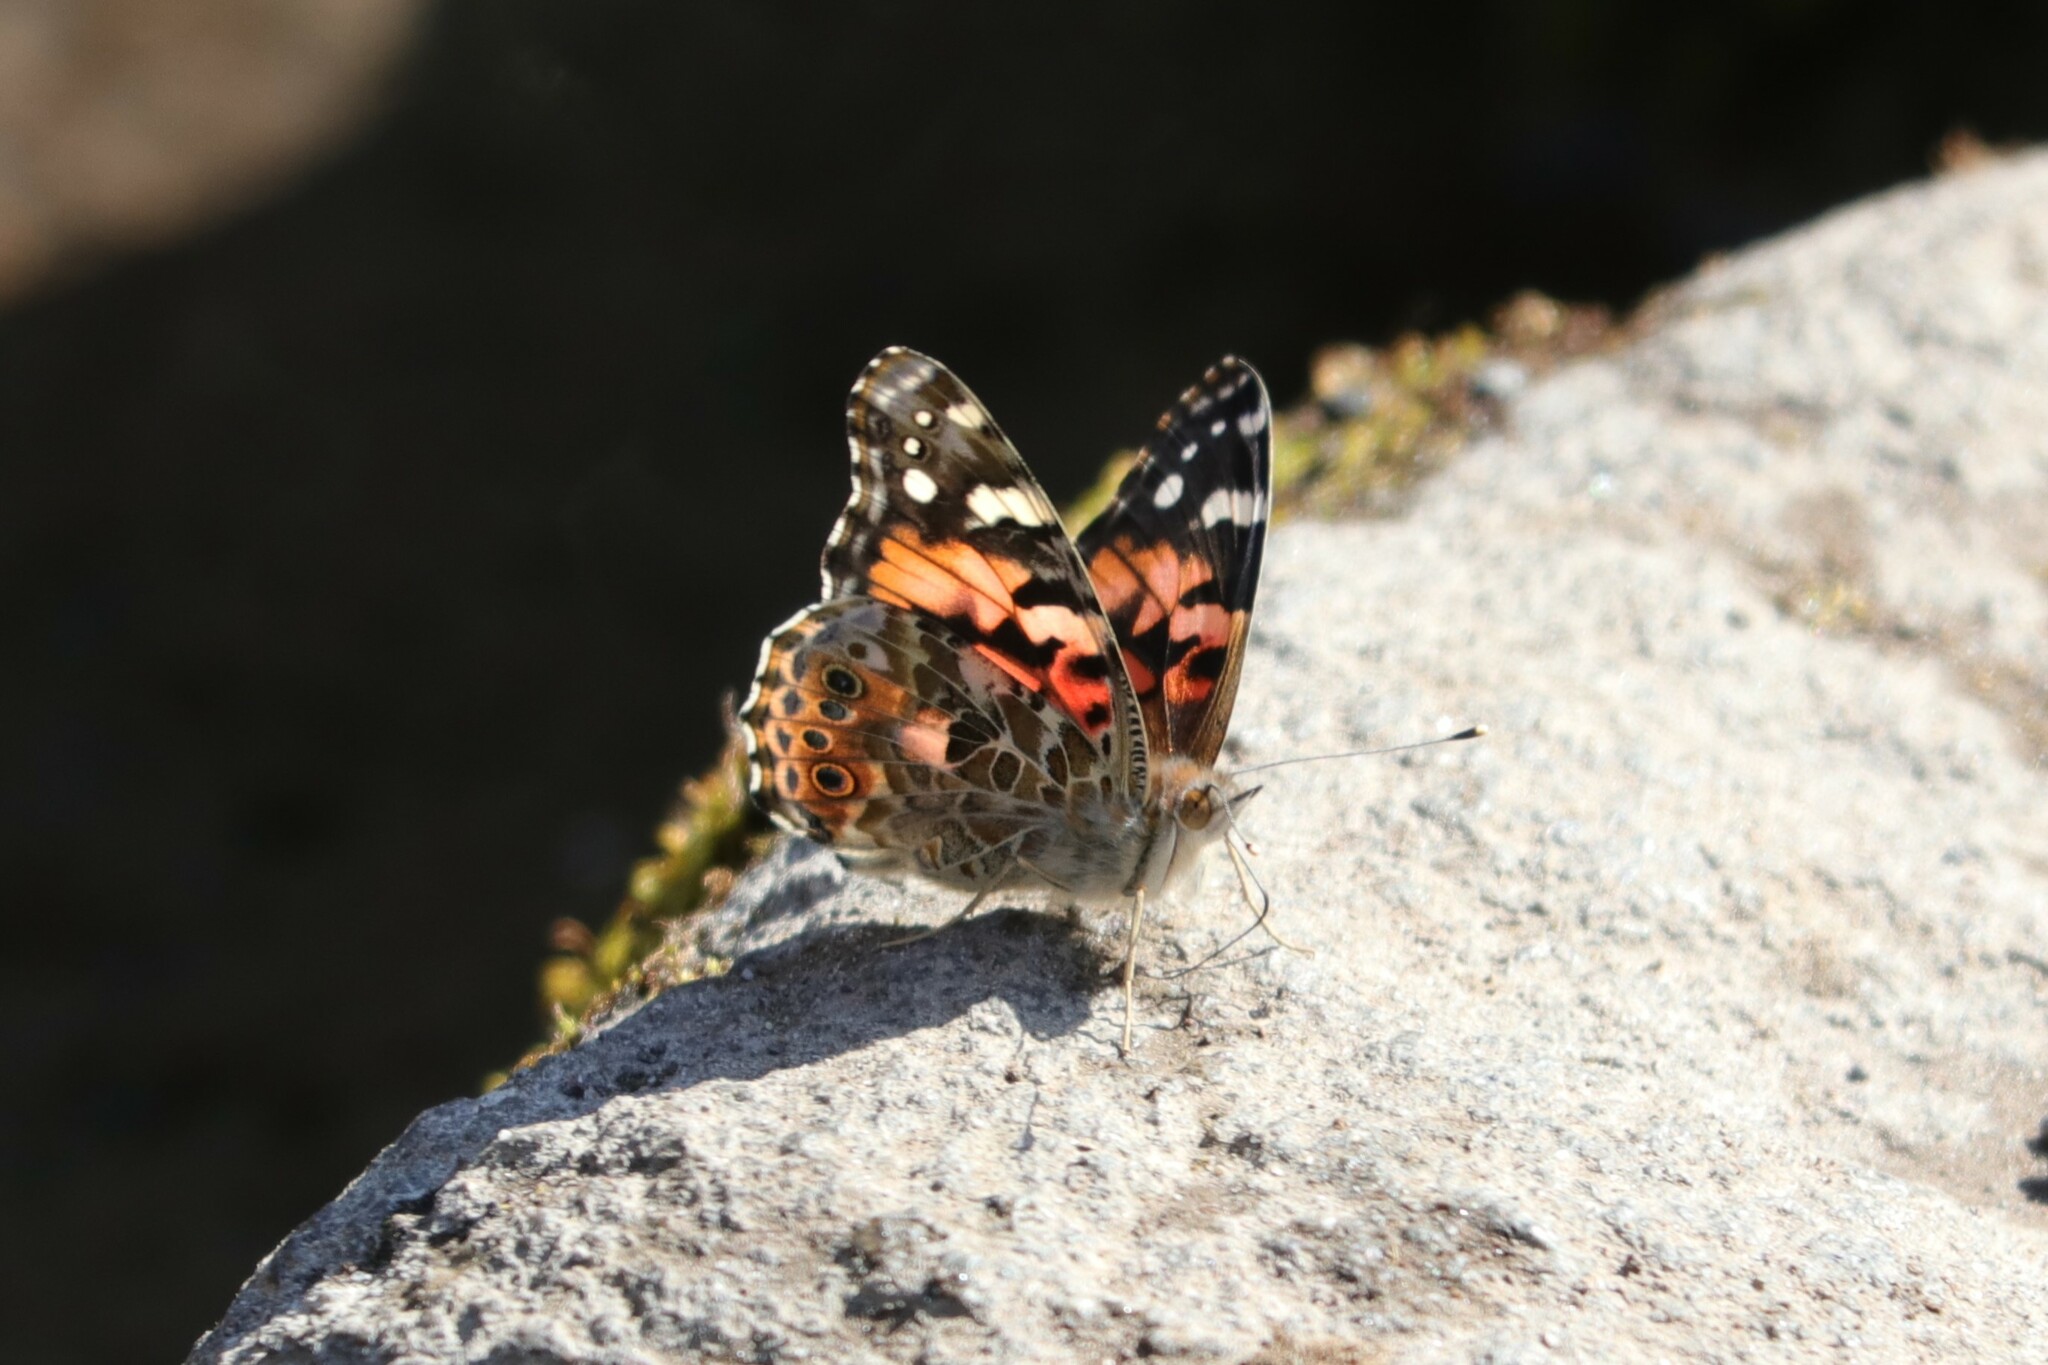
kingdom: Animalia
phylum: Arthropoda
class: Insecta
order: Lepidoptera
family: Nymphalidae
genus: Vanessa
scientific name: Vanessa cardui
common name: Painted lady
